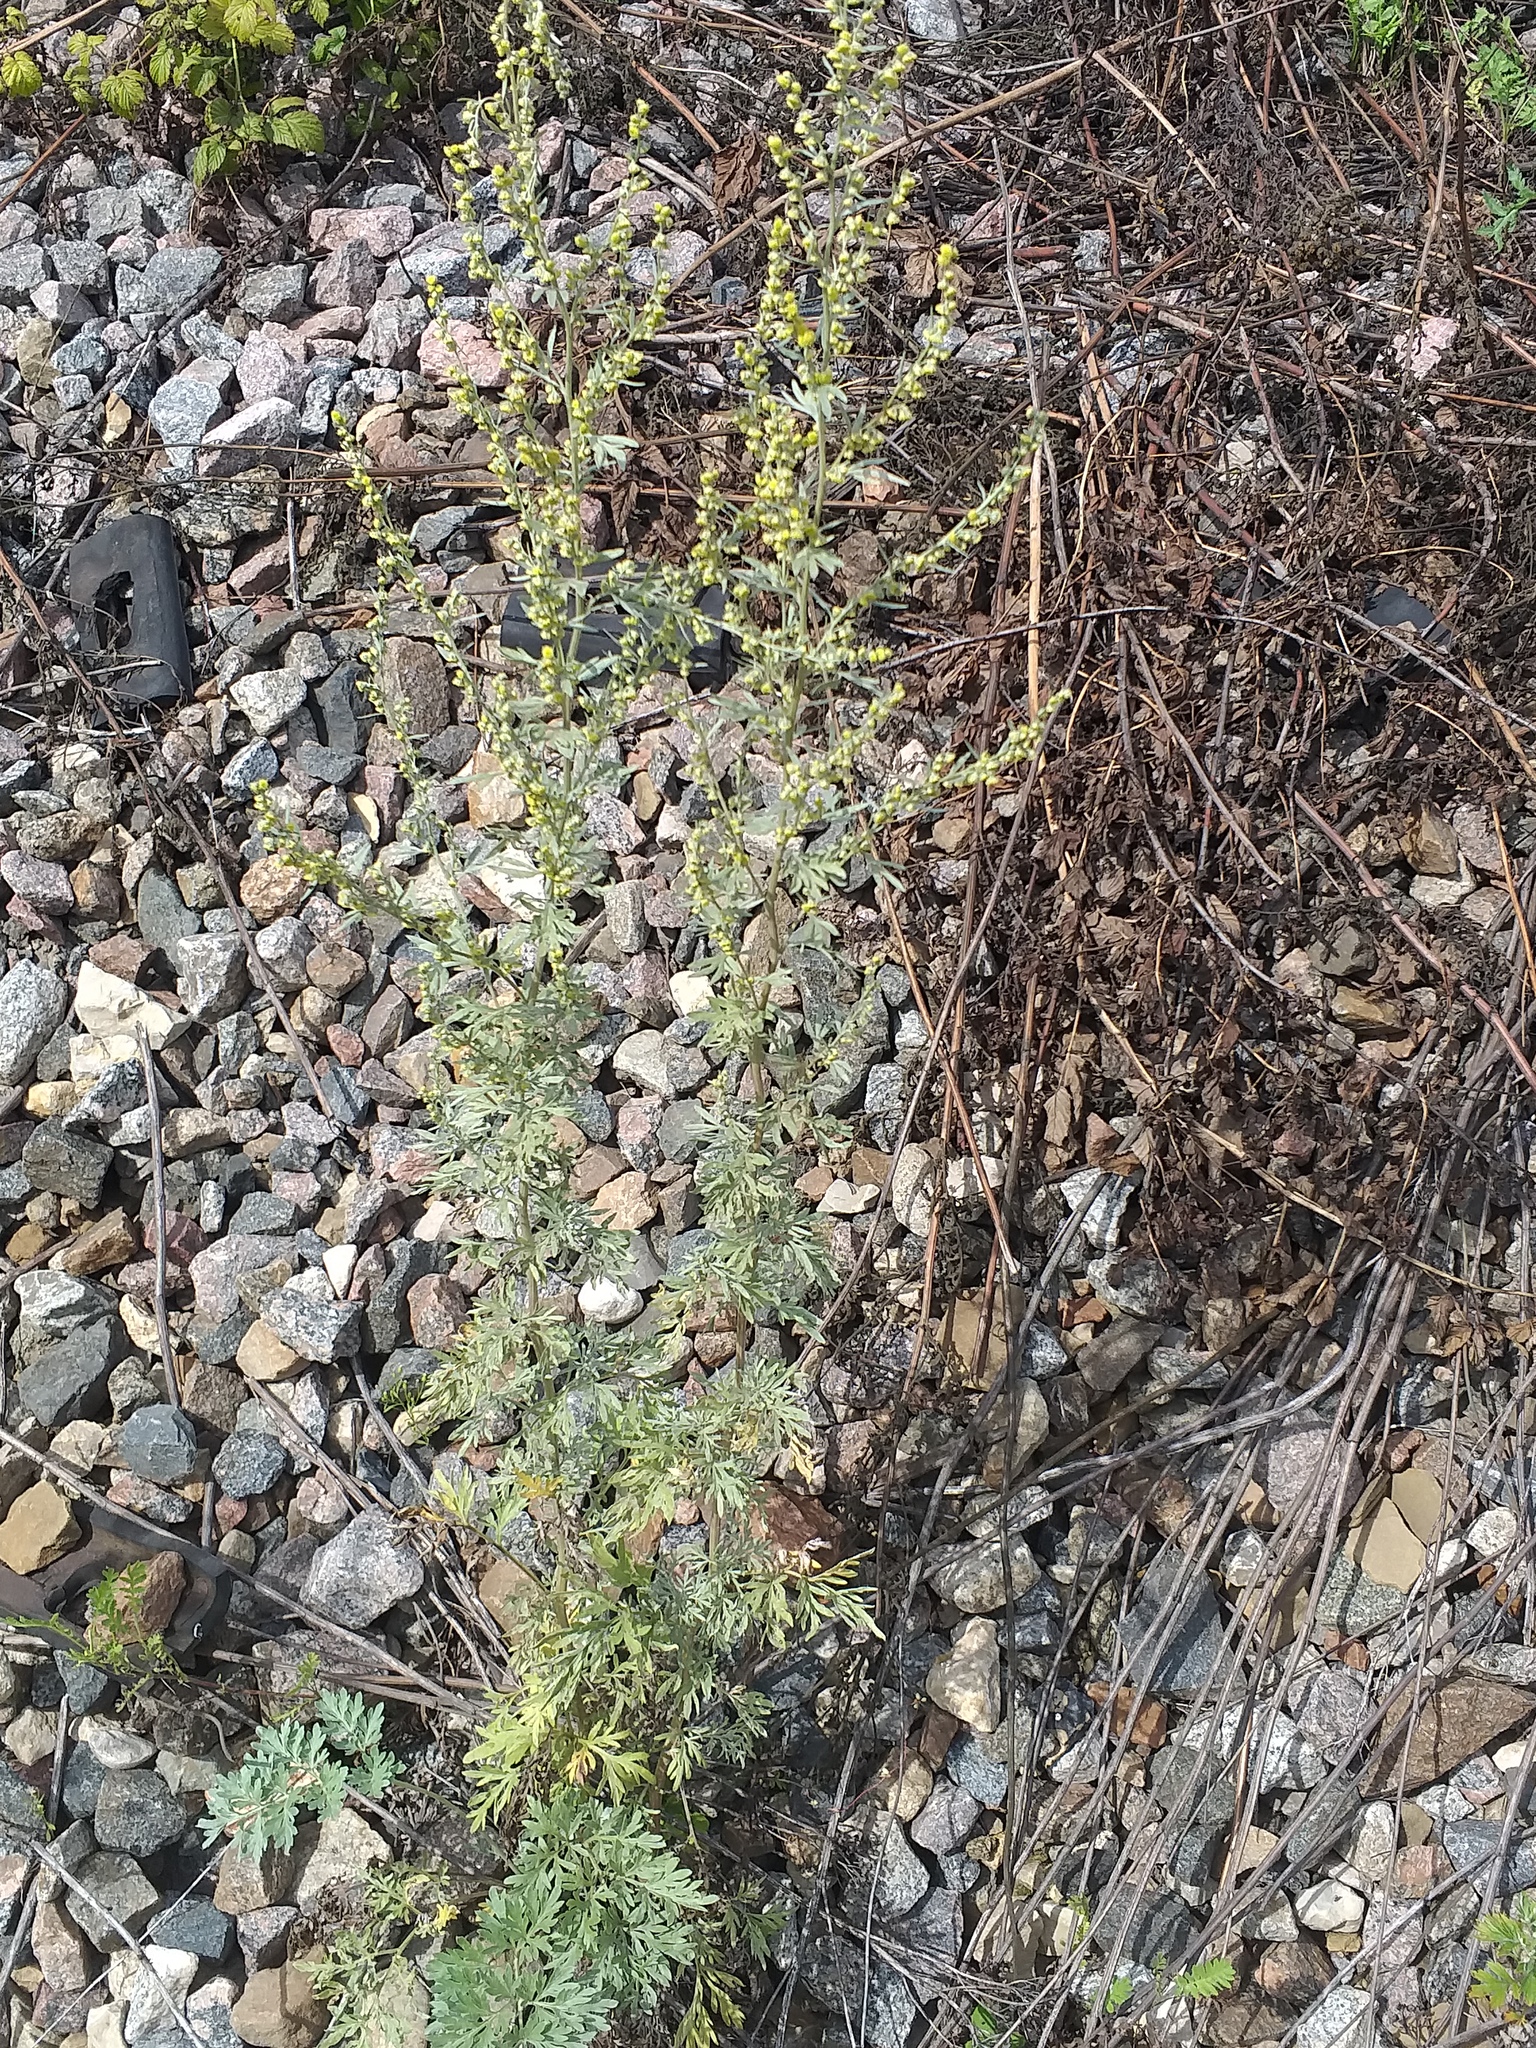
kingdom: Plantae
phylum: Tracheophyta
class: Magnoliopsida
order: Asterales
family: Asteraceae
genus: Artemisia
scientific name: Artemisia absinthium
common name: Wormwood
